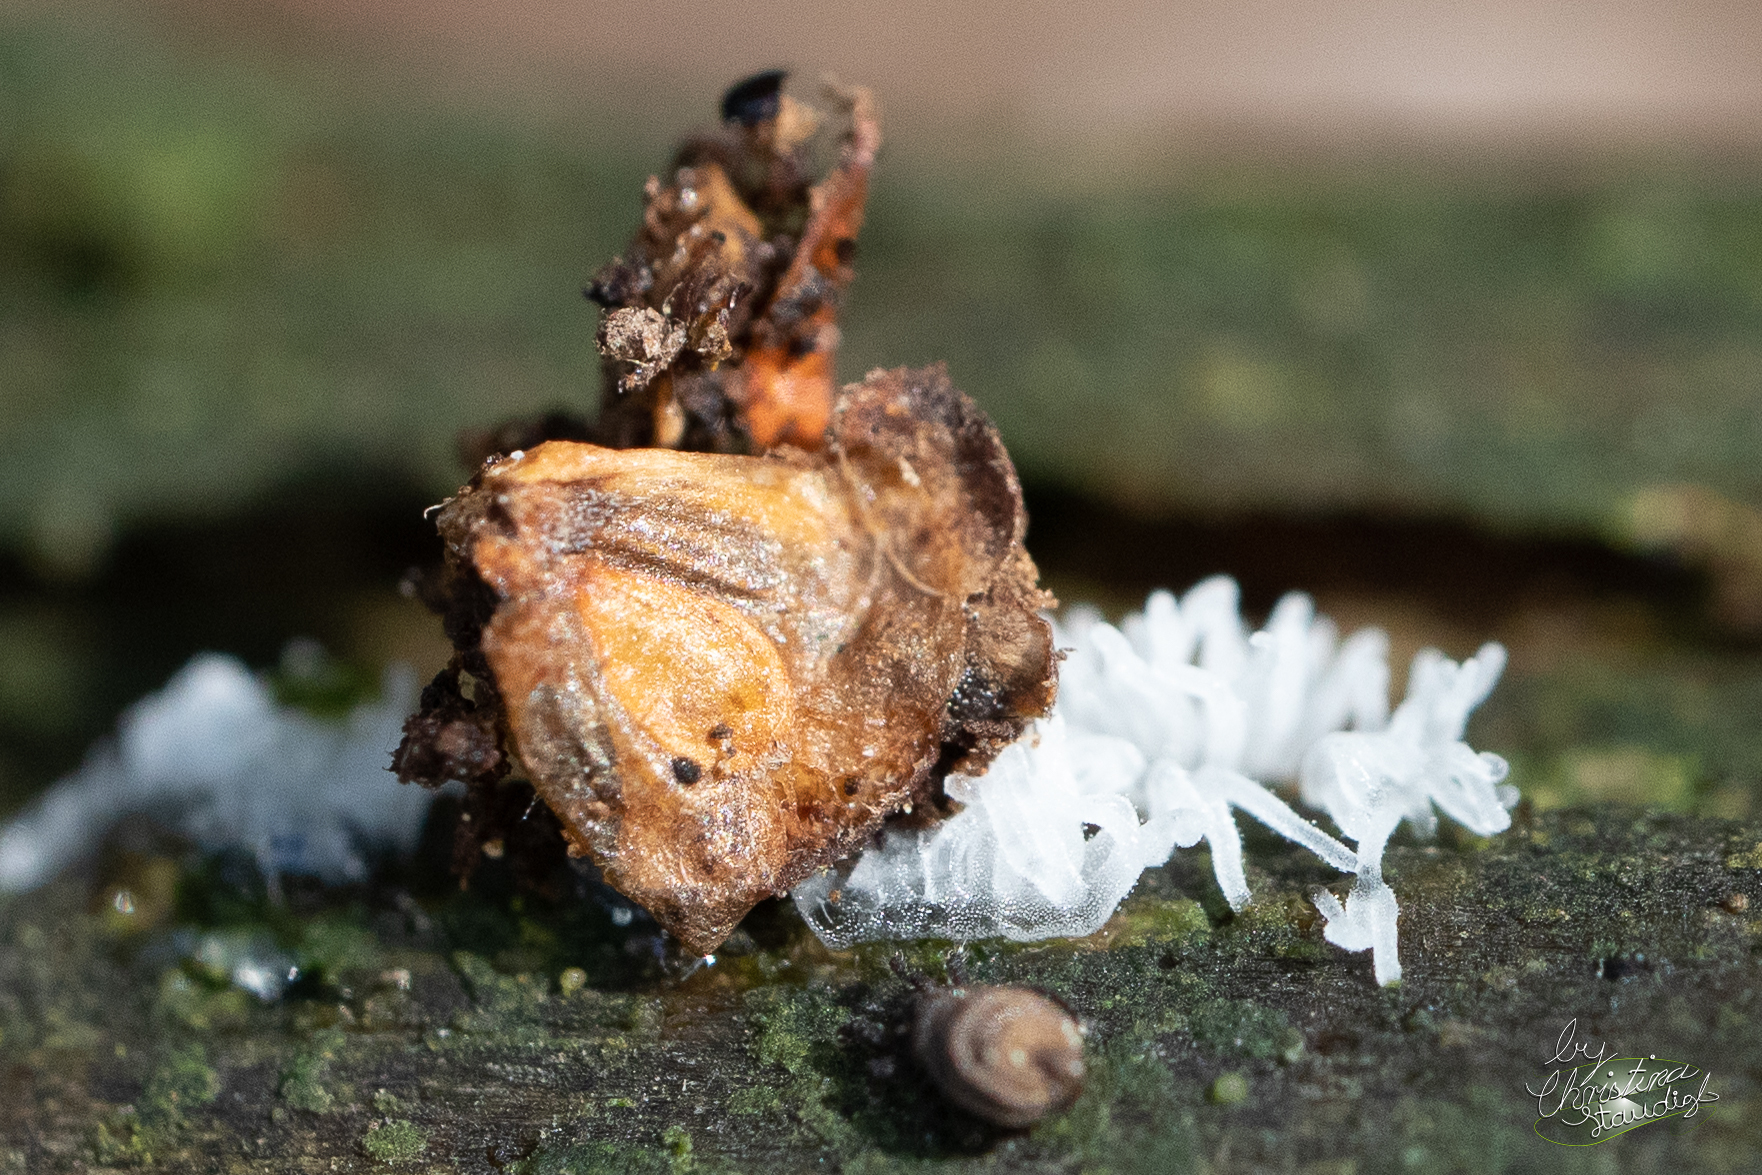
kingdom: Protozoa
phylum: Mycetozoa
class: Protosteliomycetes
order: Ceratiomyxales
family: Ceratiomyxaceae
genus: Ceratiomyxa
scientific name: Ceratiomyxa fruticulosa
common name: Honeycomb coral slime mold
